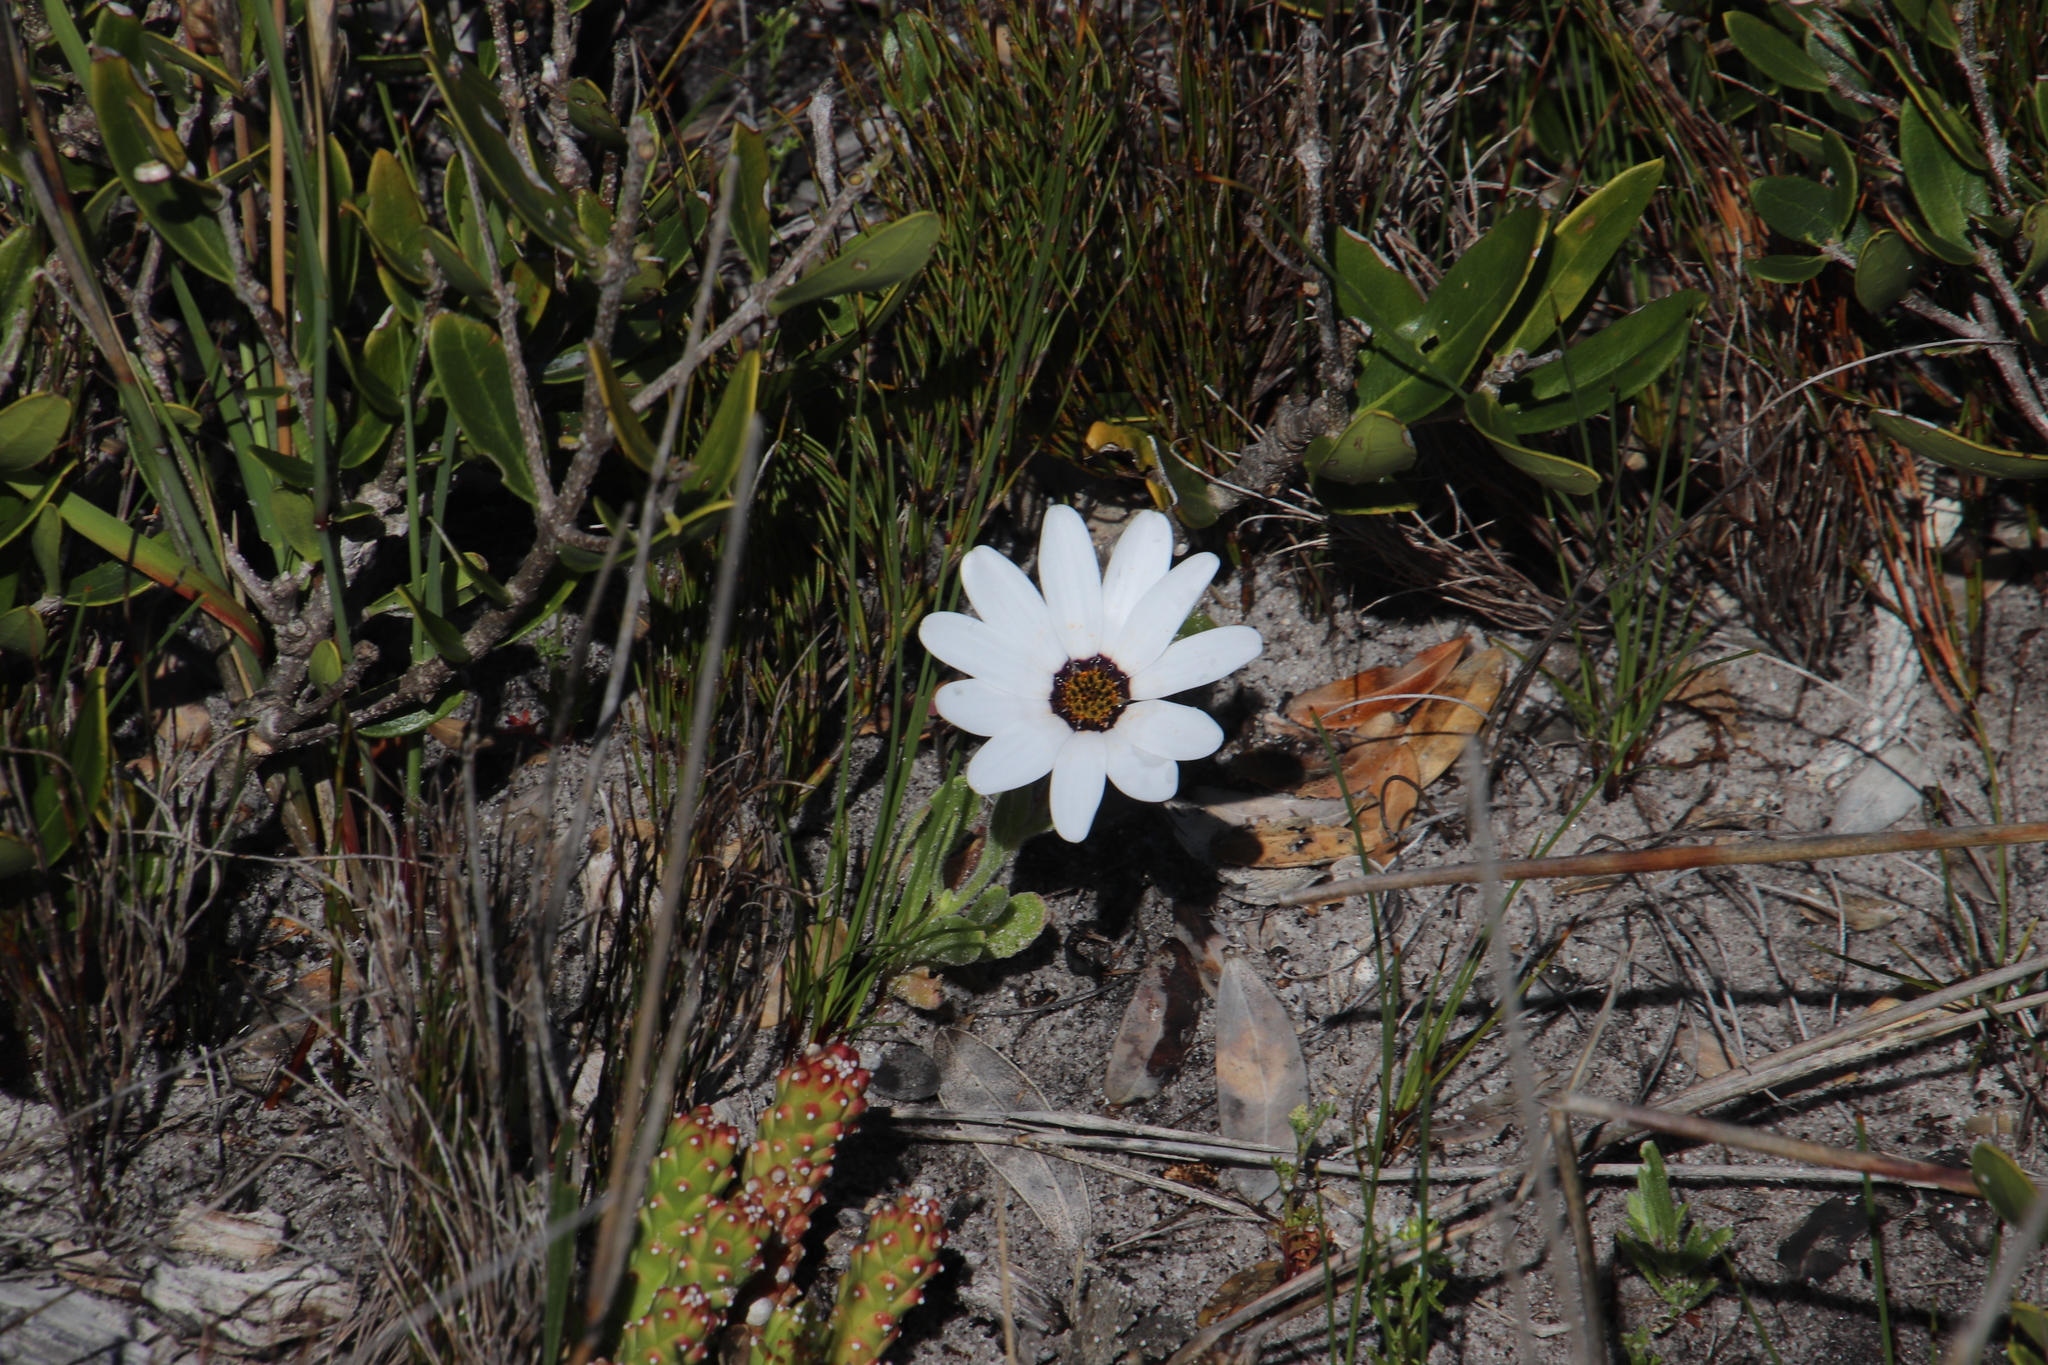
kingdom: Plantae
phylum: Tracheophyta
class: Magnoliopsida
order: Asterales
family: Asteraceae
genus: Dimorphotheca
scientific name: Dimorphotheca pluvialis
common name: Weather prophet
